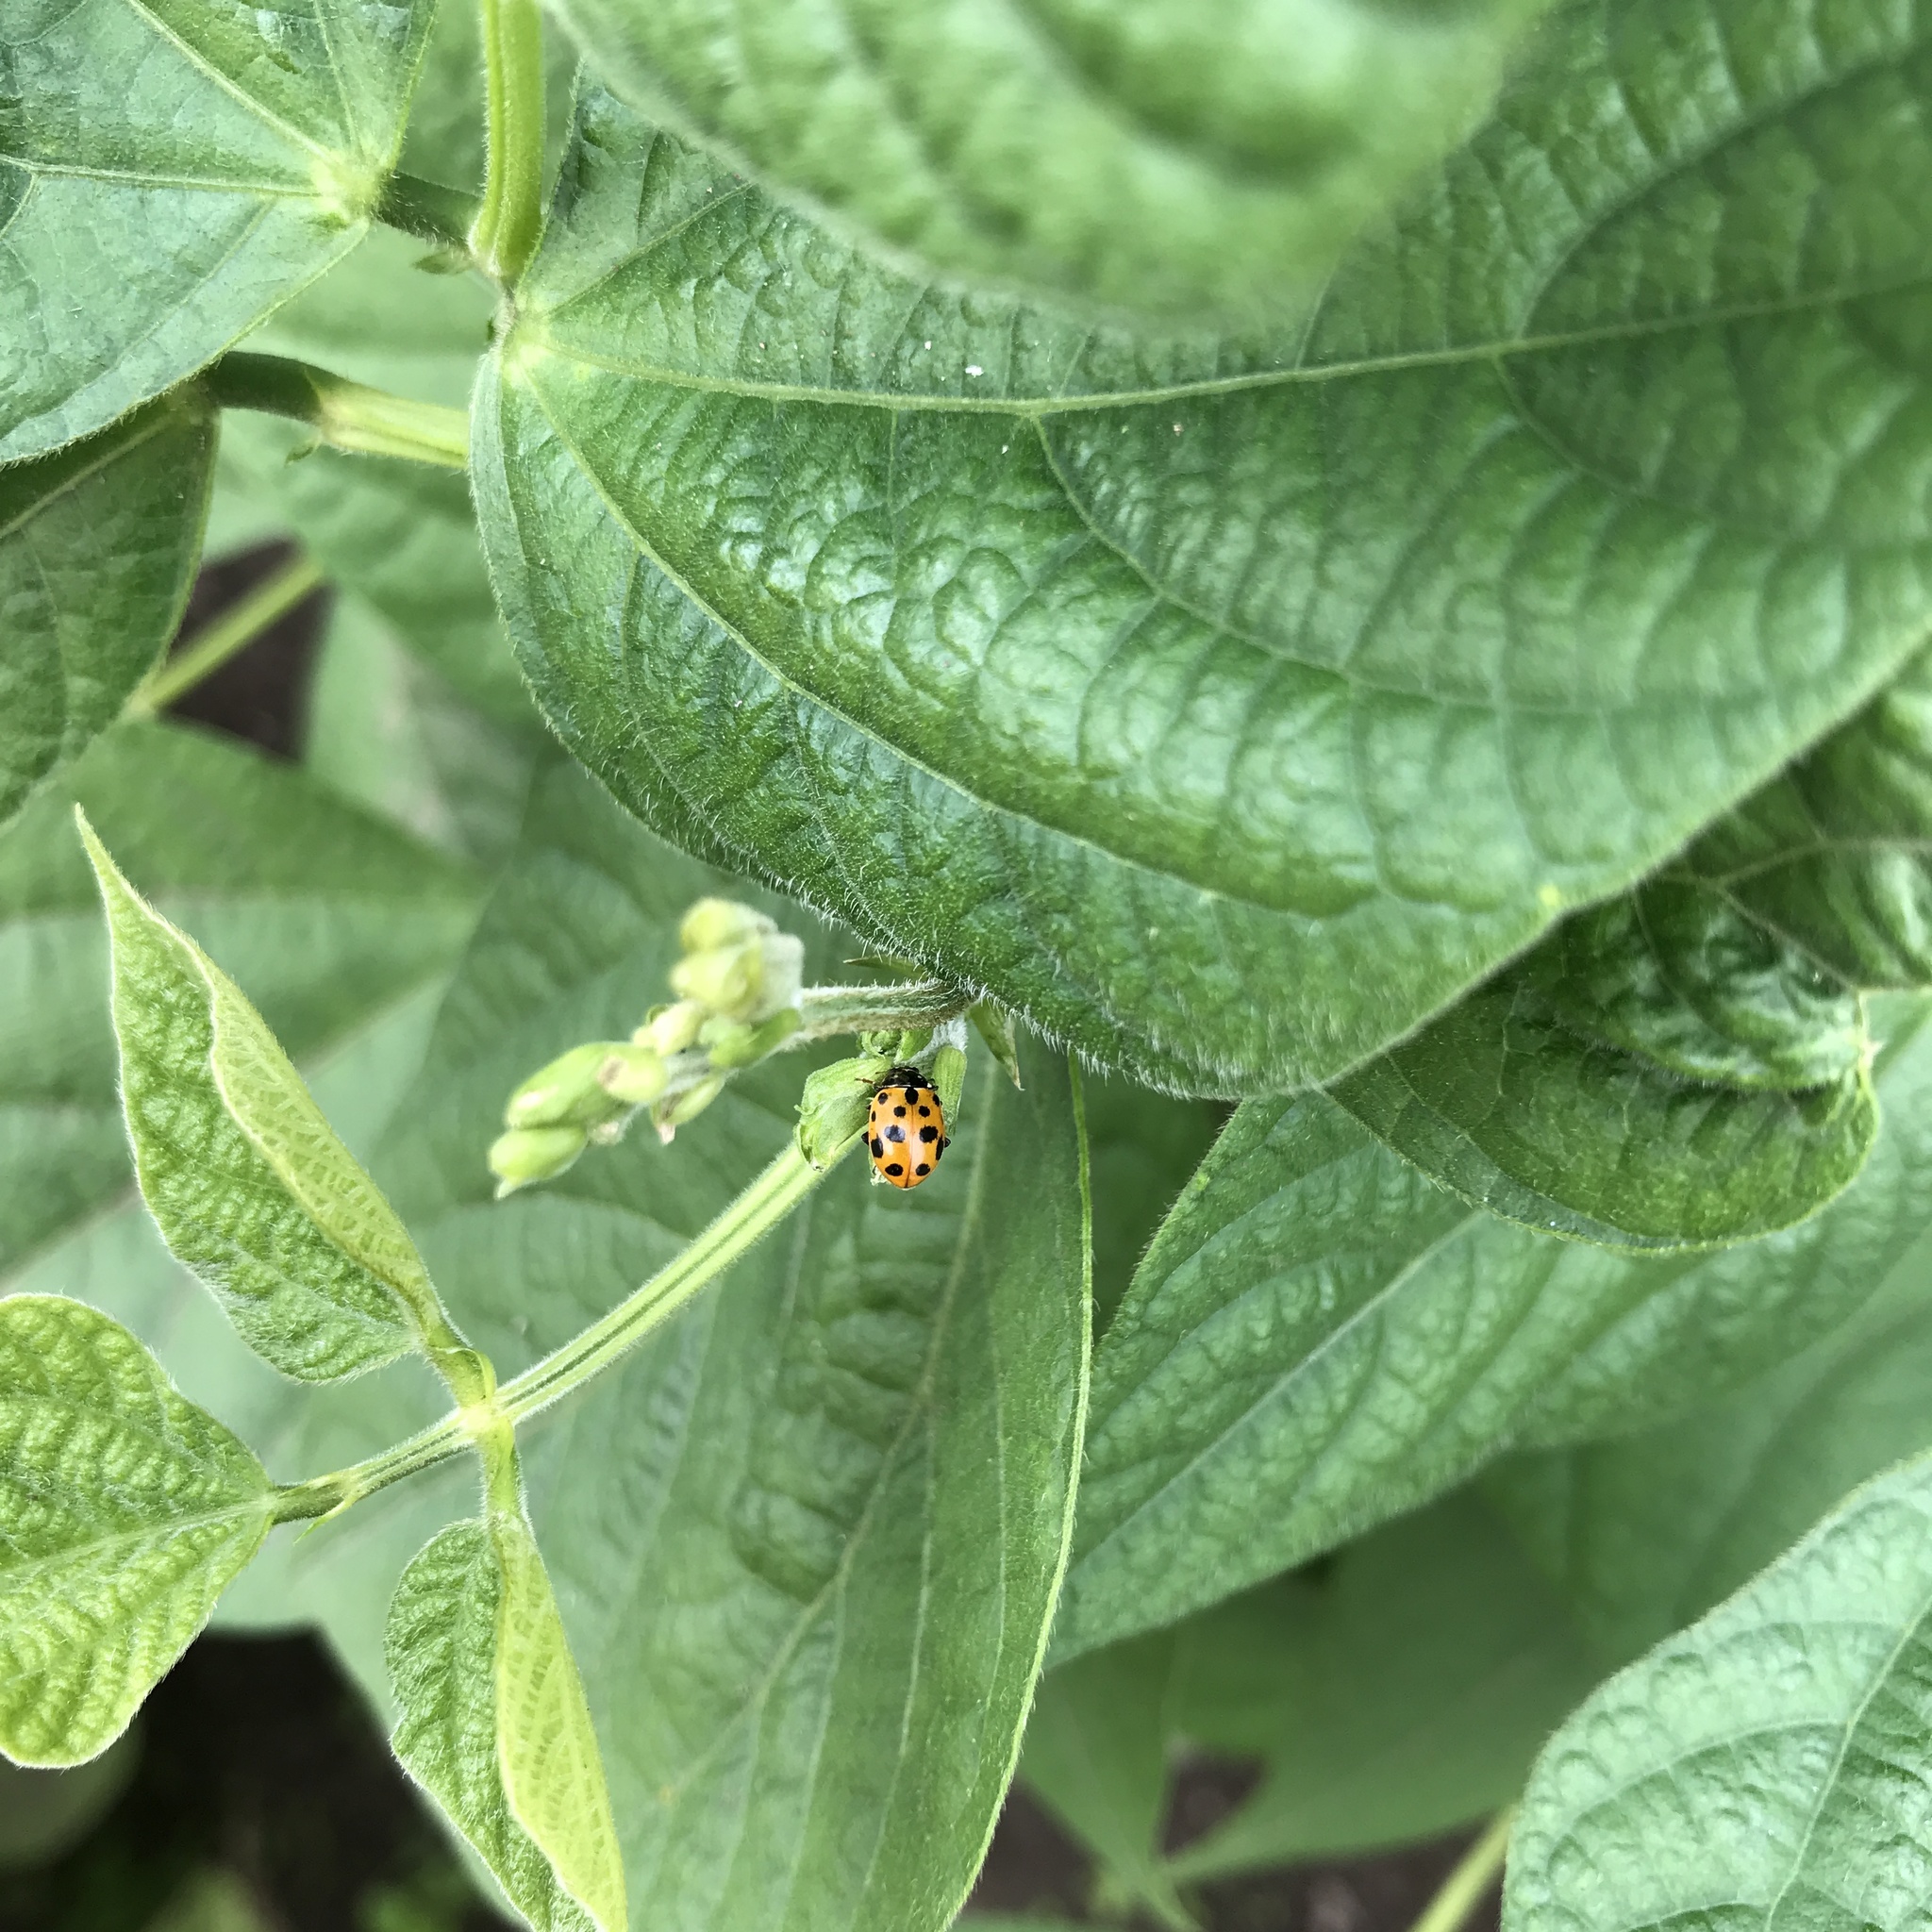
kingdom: Animalia
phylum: Arthropoda
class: Insecta
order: Coleoptera
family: Coccinellidae
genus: Hippodamia
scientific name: Hippodamia variegata
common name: Ladybird beetle
